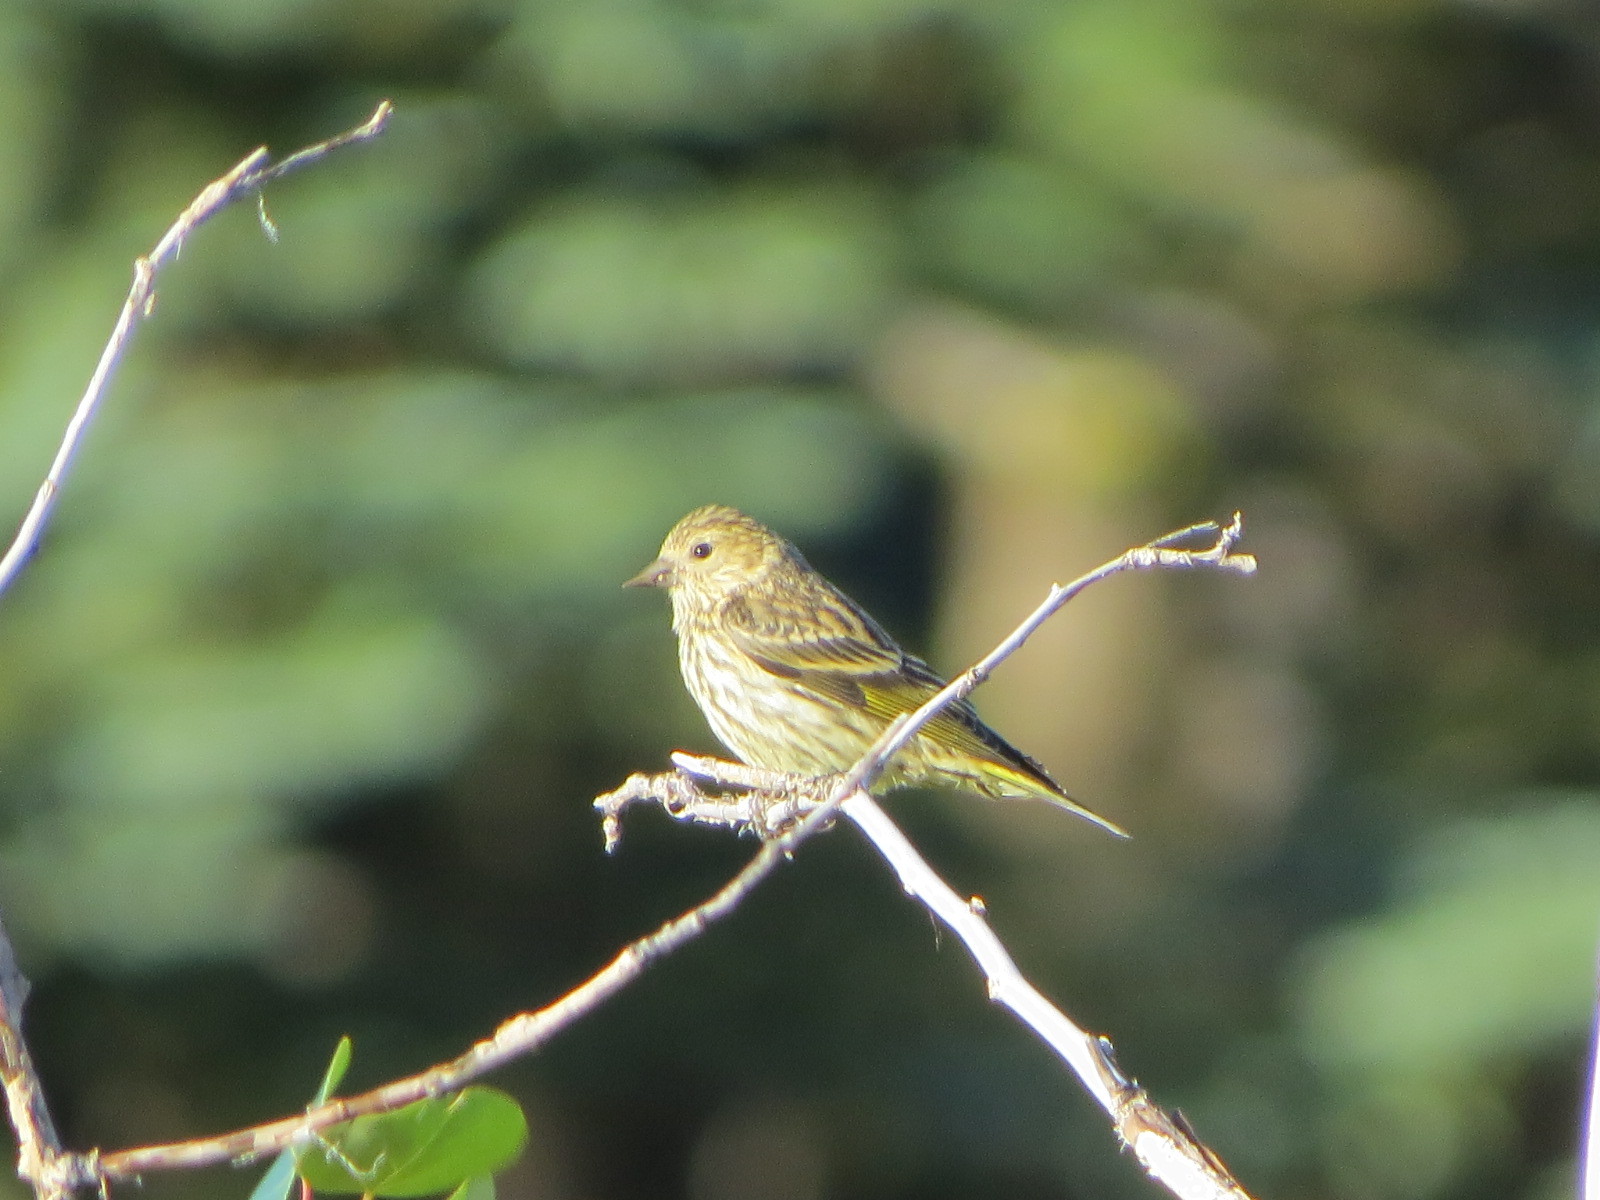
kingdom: Animalia
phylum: Chordata
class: Aves
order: Passeriformes
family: Fringillidae
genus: Spinus
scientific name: Spinus pinus
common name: Pine siskin
